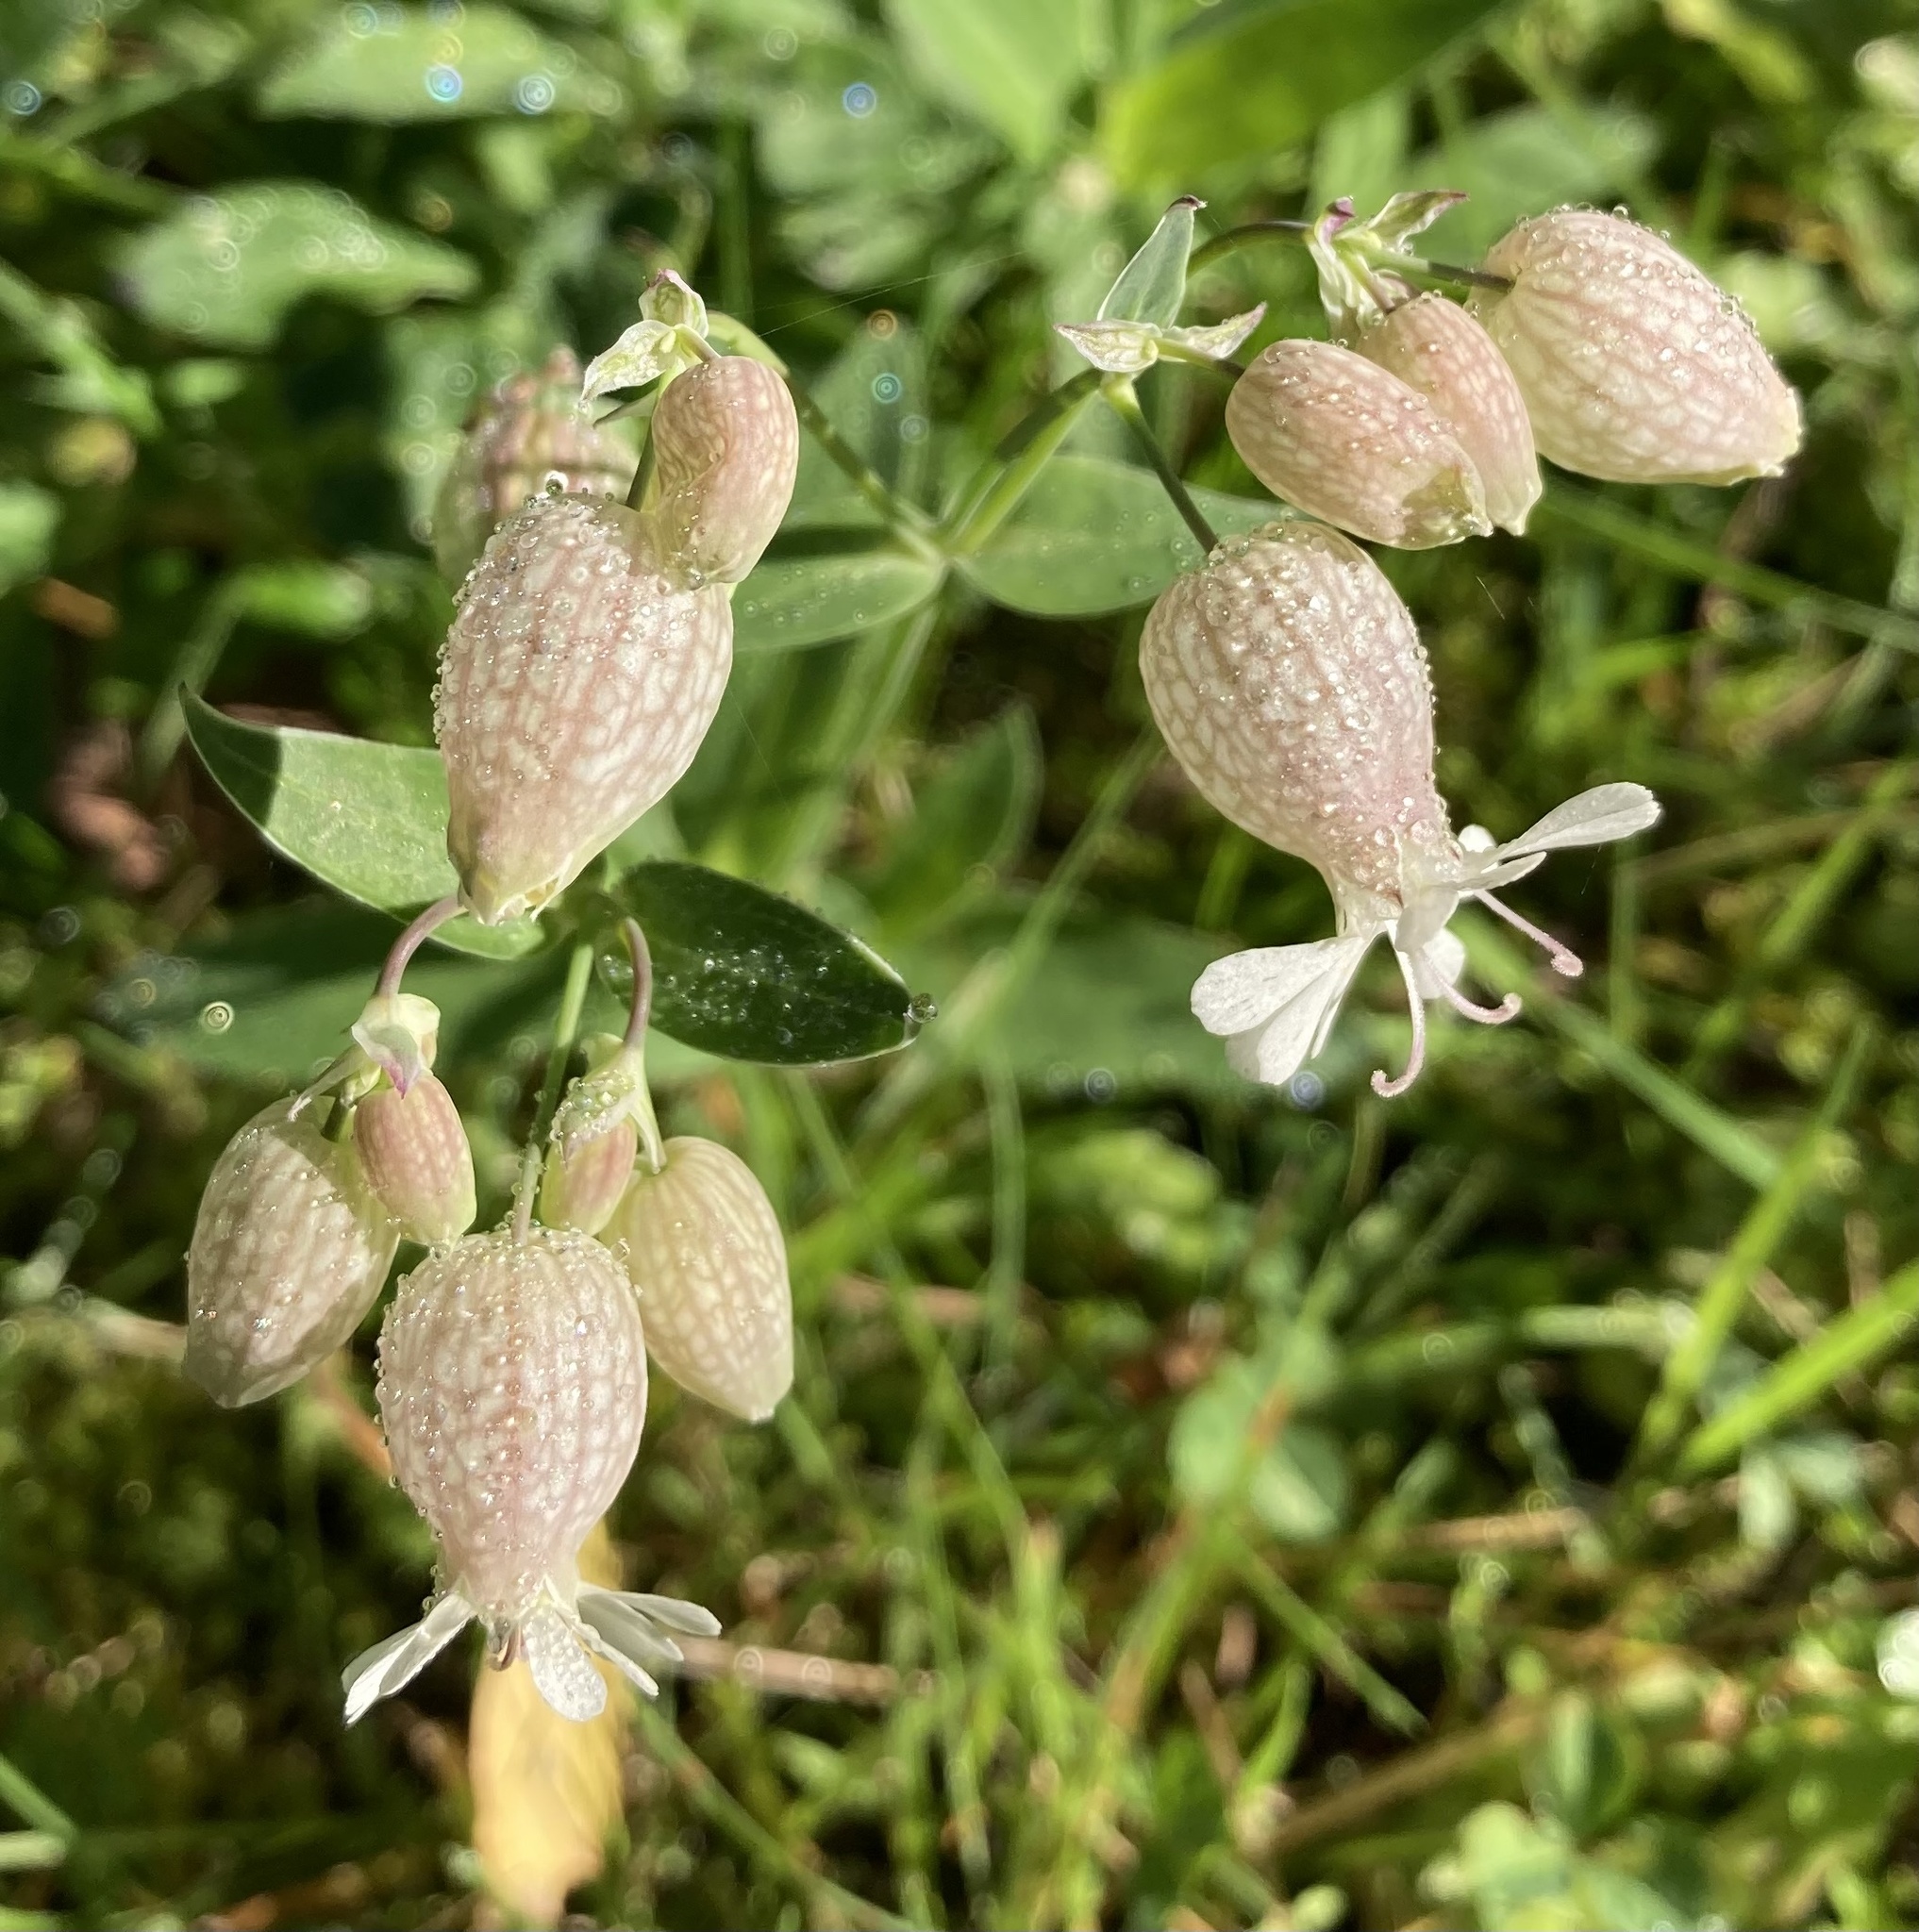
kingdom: Plantae
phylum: Tracheophyta
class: Magnoliopsida
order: Caryophyllales
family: Caryophyllaceae
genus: Silene
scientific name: Silene vulgaris
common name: Bladder campion
